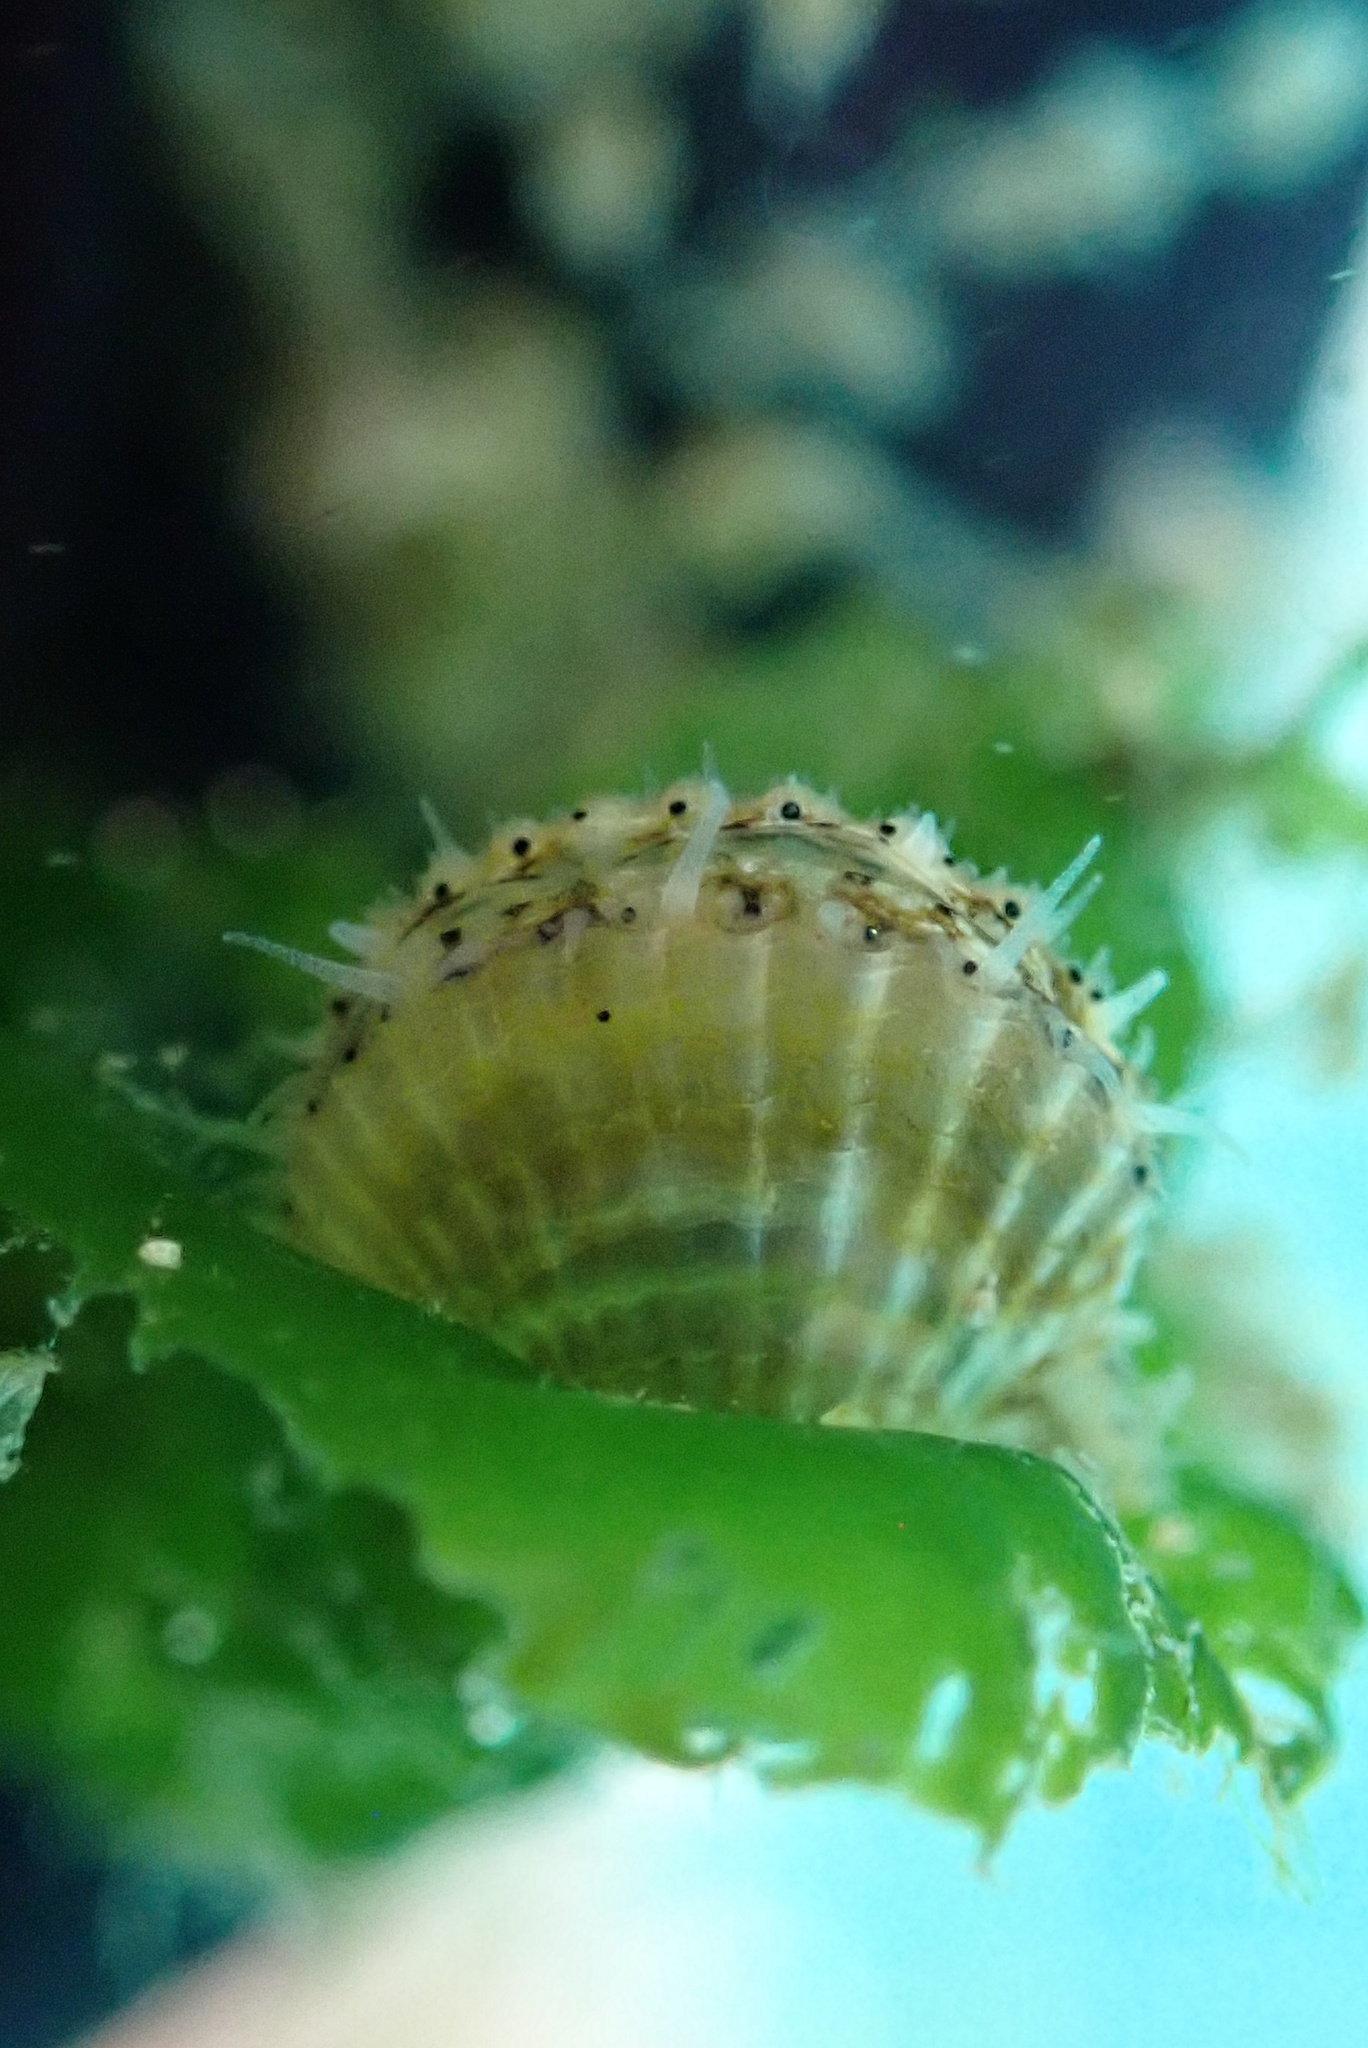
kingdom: Animalia
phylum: Mollusca
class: Bivalvia
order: Pectinida
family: Pectinidae
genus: Leptopecten
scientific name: Leptopecten latiauratus
